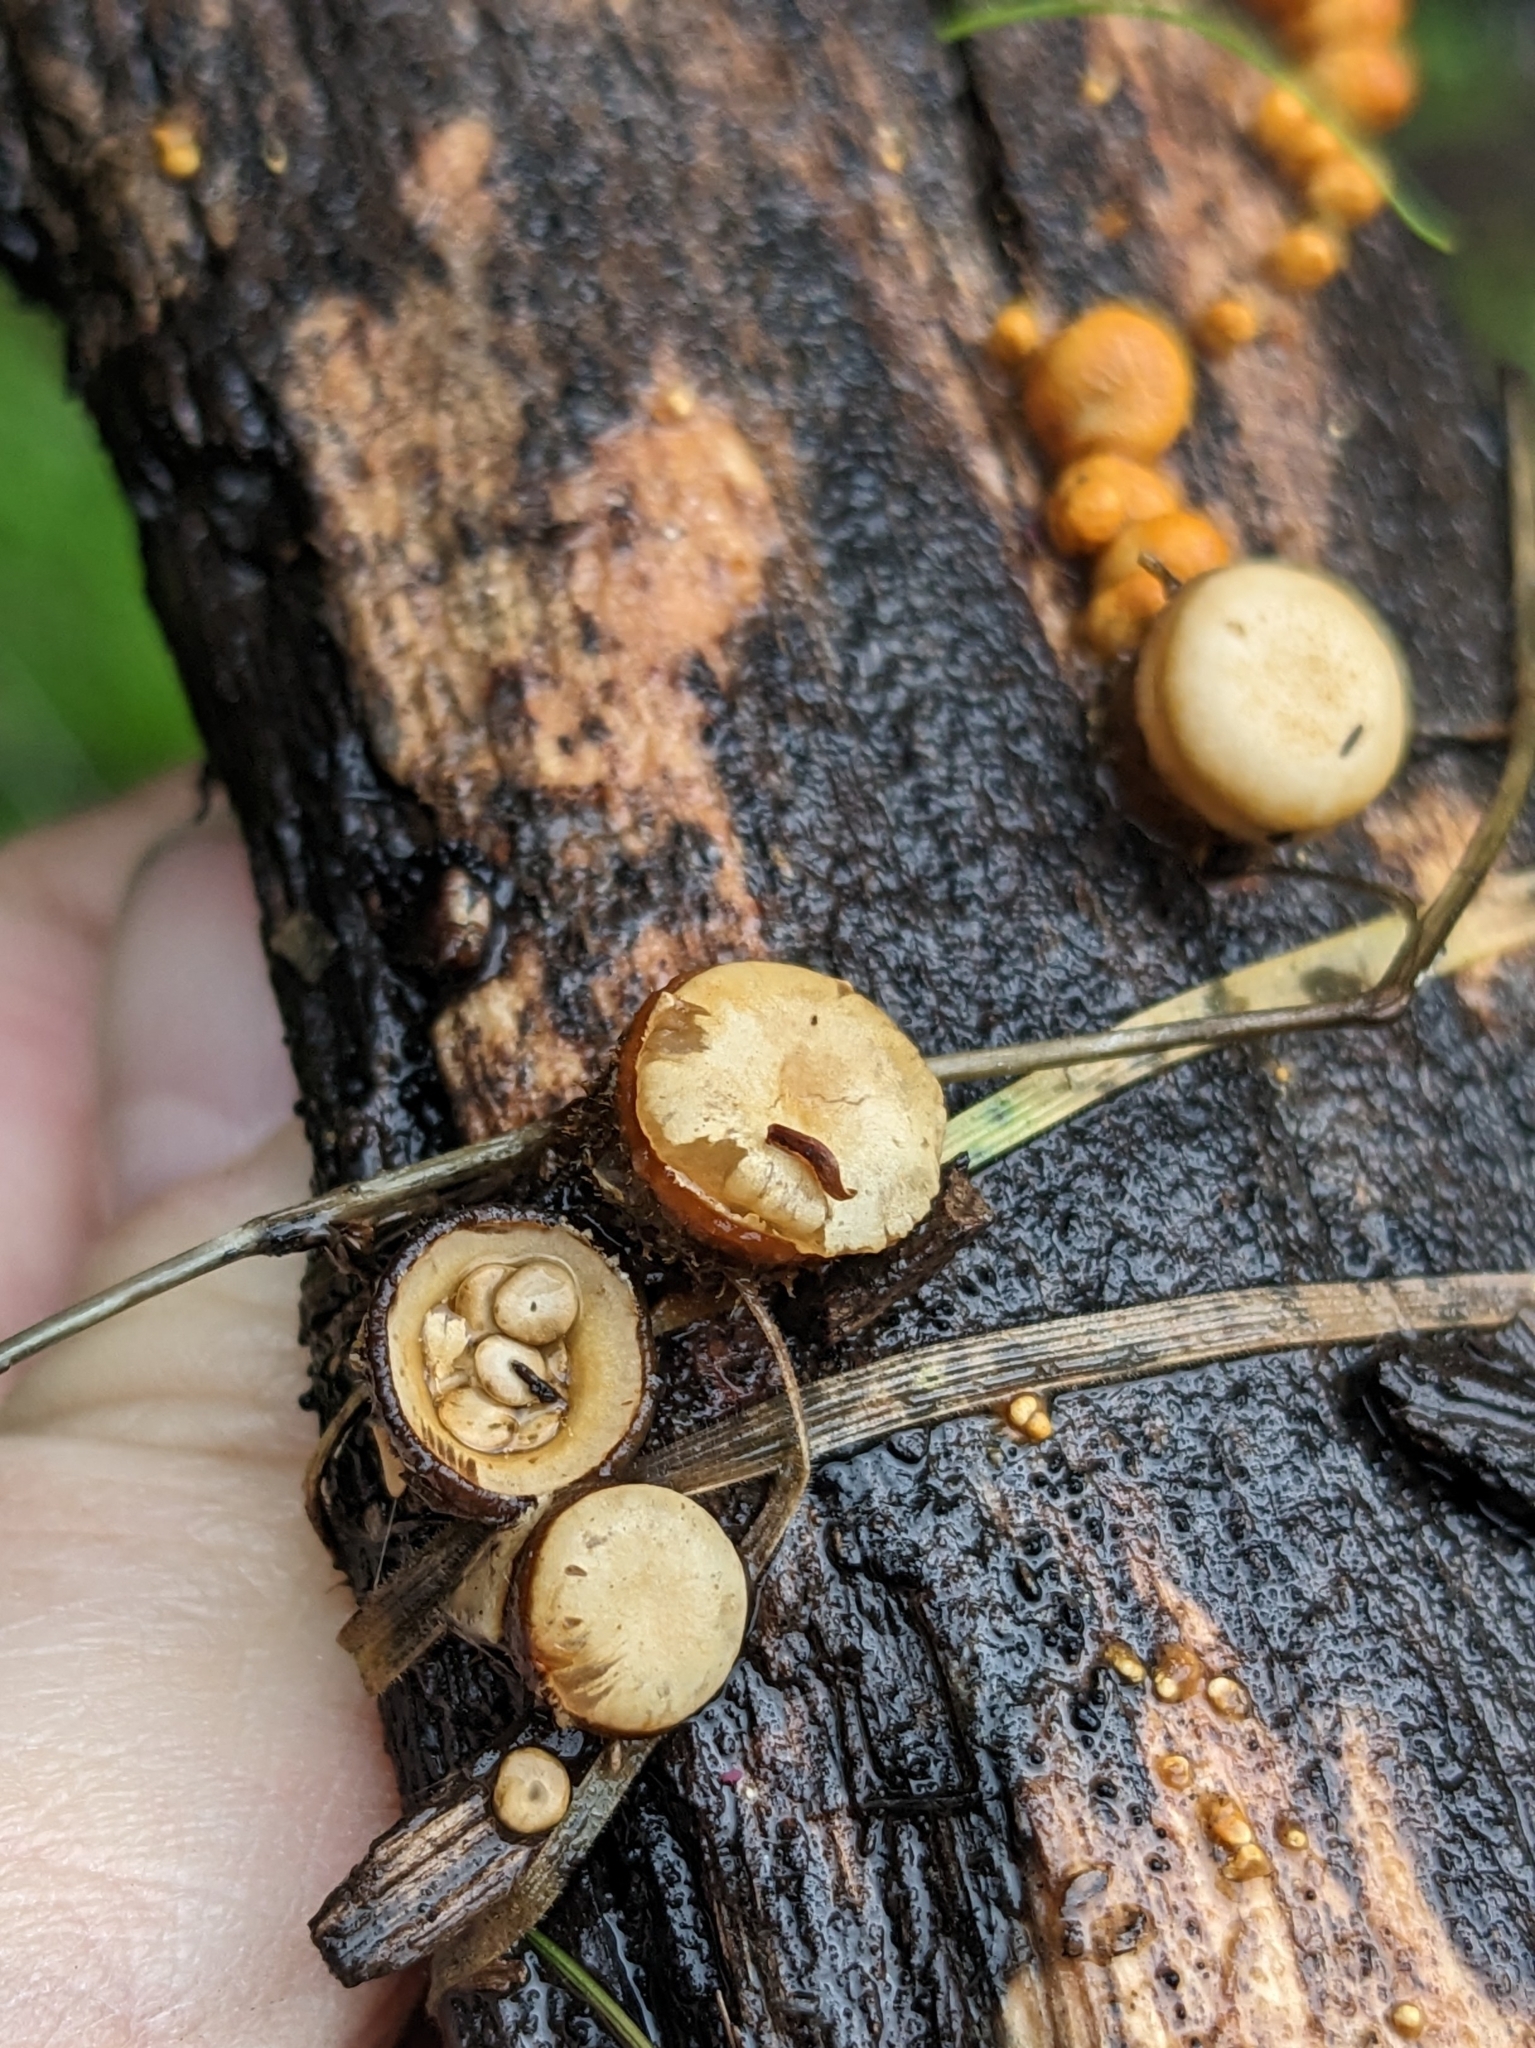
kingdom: Fungi
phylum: Basidiomycota
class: Agaricomycetes
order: Agaricales
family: Nidulariaceae
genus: Crucibulum
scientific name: Crucibulum laeve
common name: Common bird's nest
